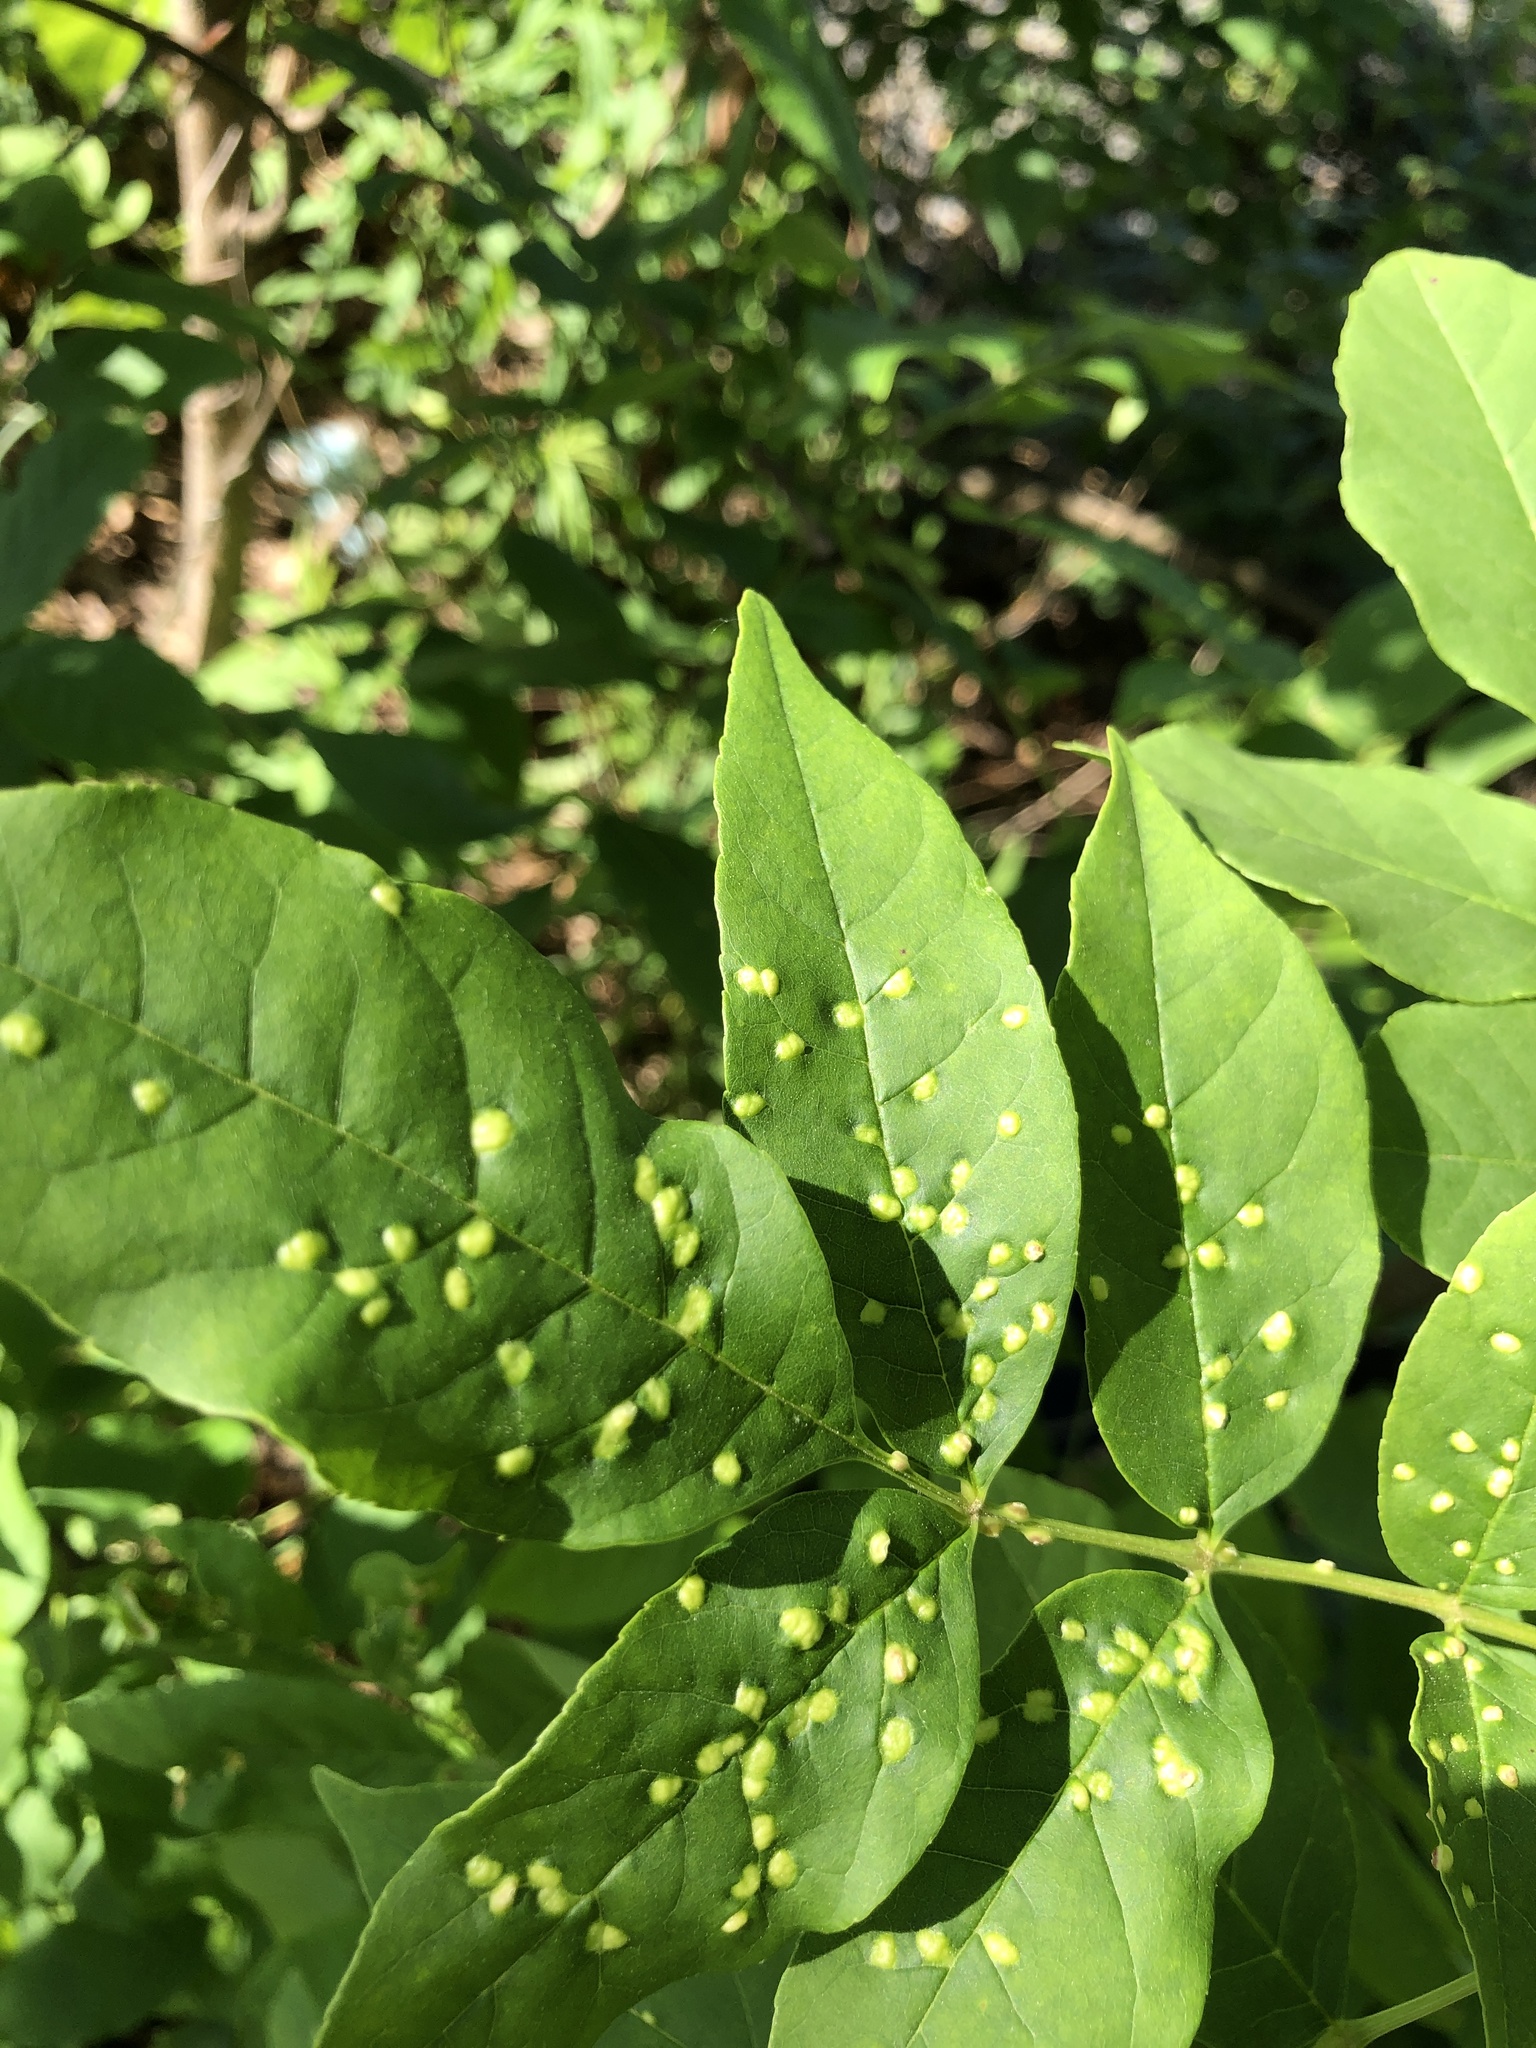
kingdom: Animalia
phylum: Arthropoda
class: Arachnida
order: Trombidiformes
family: Eriophyidae
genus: Aceria
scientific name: Aceria fraxinicola
